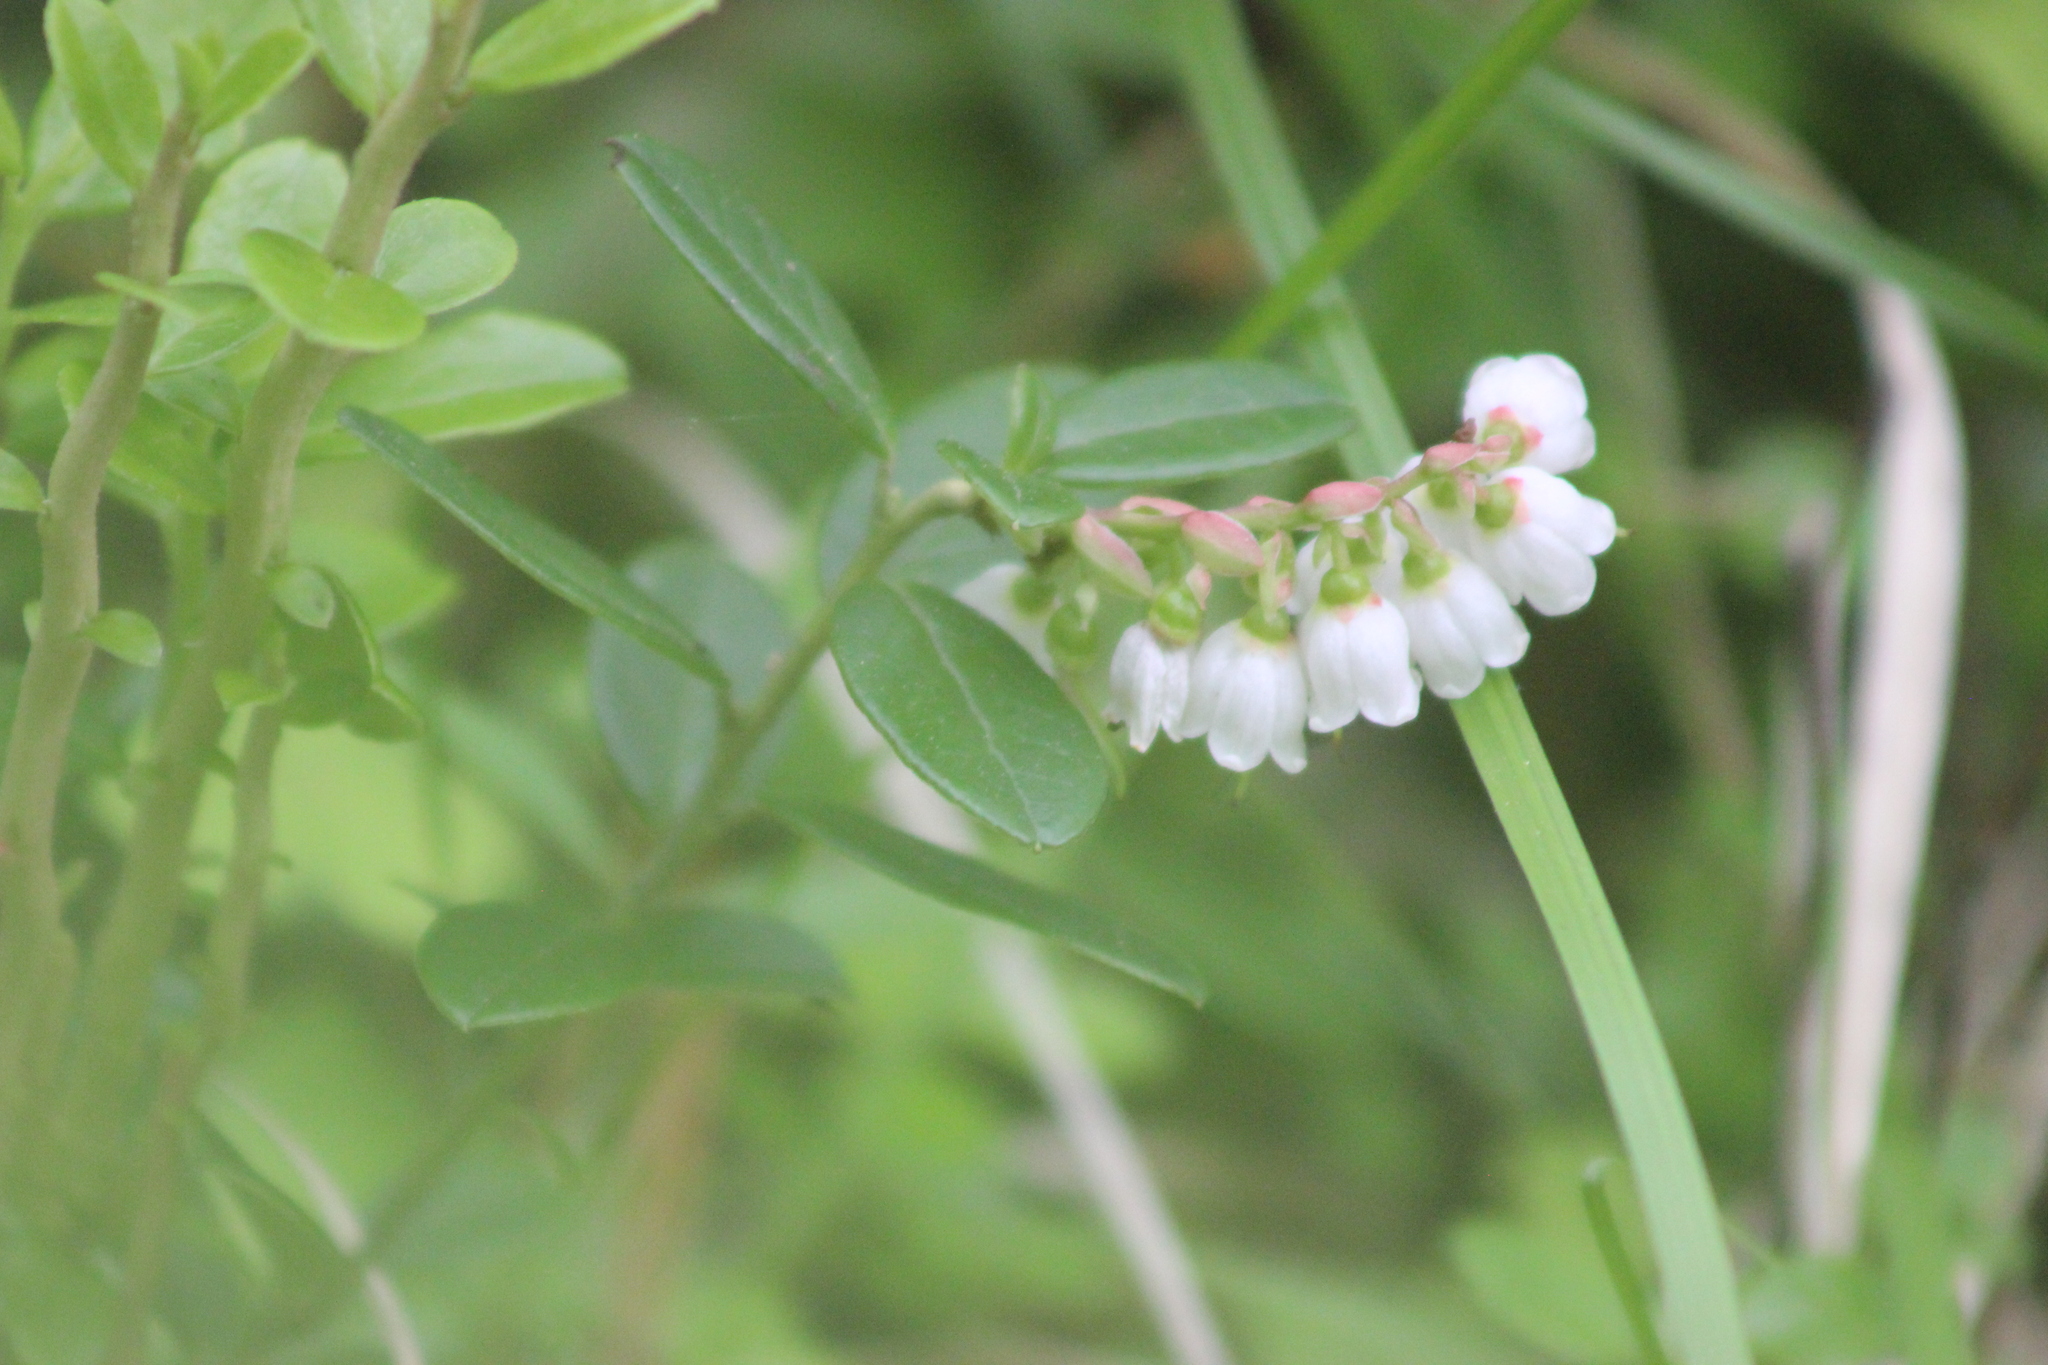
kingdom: Plantae
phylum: Tracheophyta
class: Magnoliopsida
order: Ericales
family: Ericaceae
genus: Vaccinium
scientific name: Vaccinium vitis-idaea
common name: Cowberry
